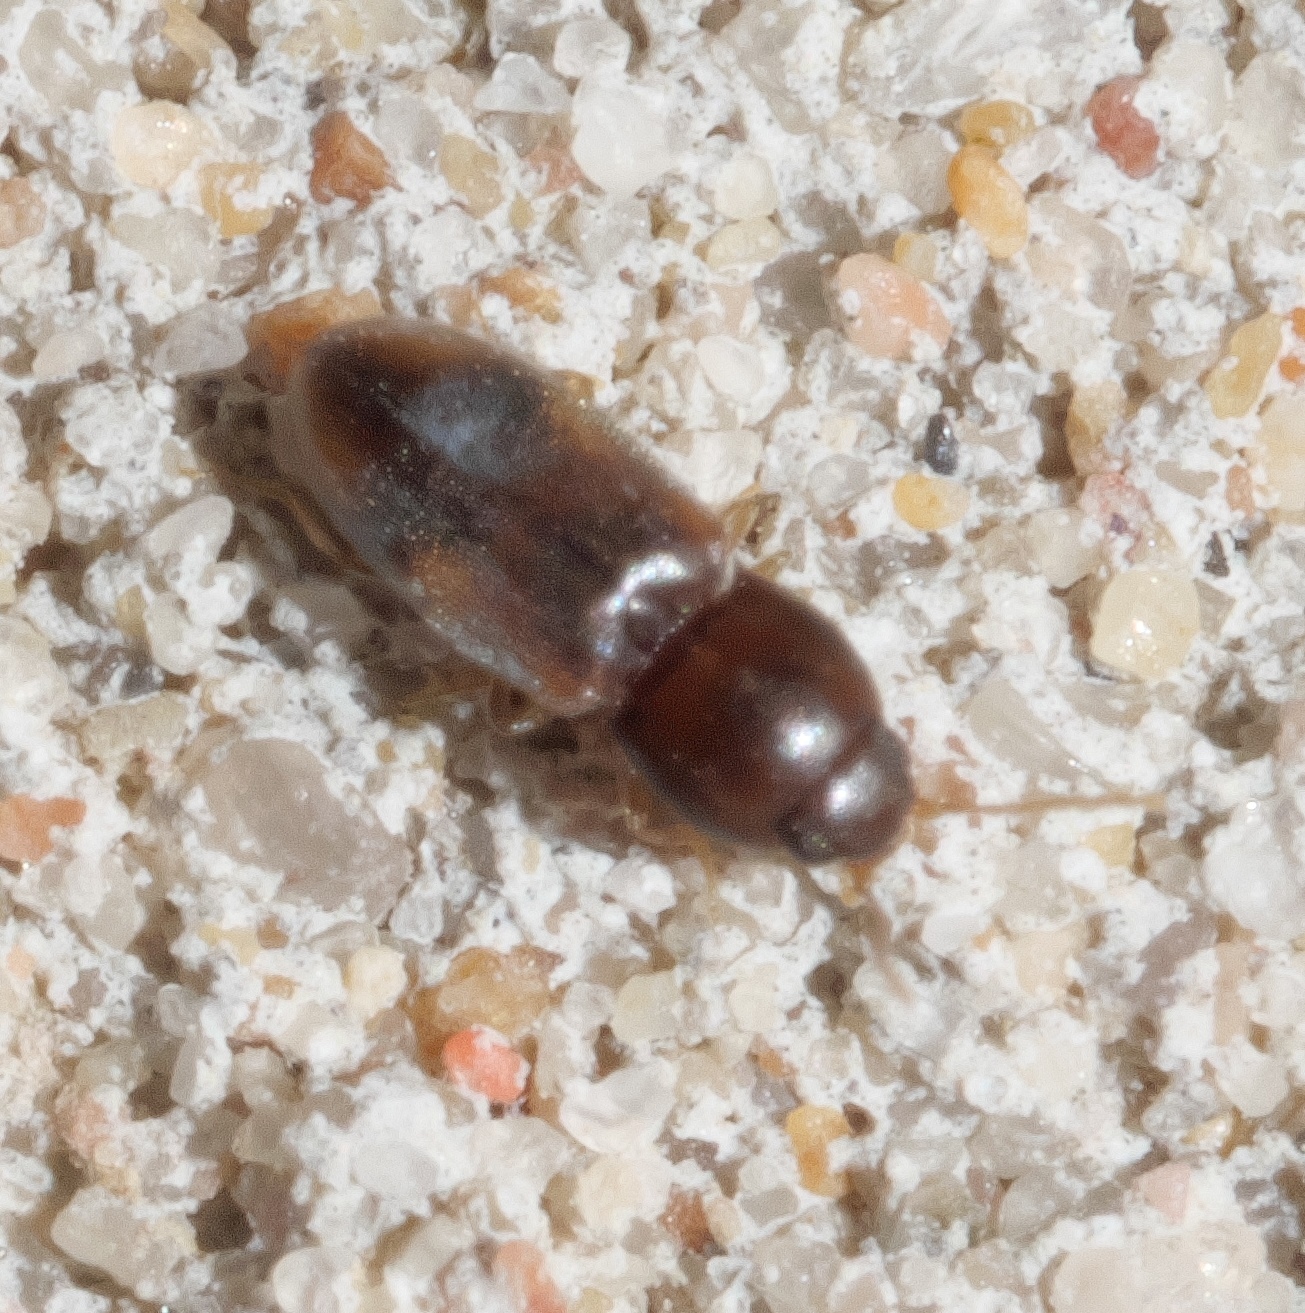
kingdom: Animalia
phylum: Arthropoda
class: Insecta
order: Coleoptera
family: Elateridae
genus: Paradonus
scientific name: Paradonus
